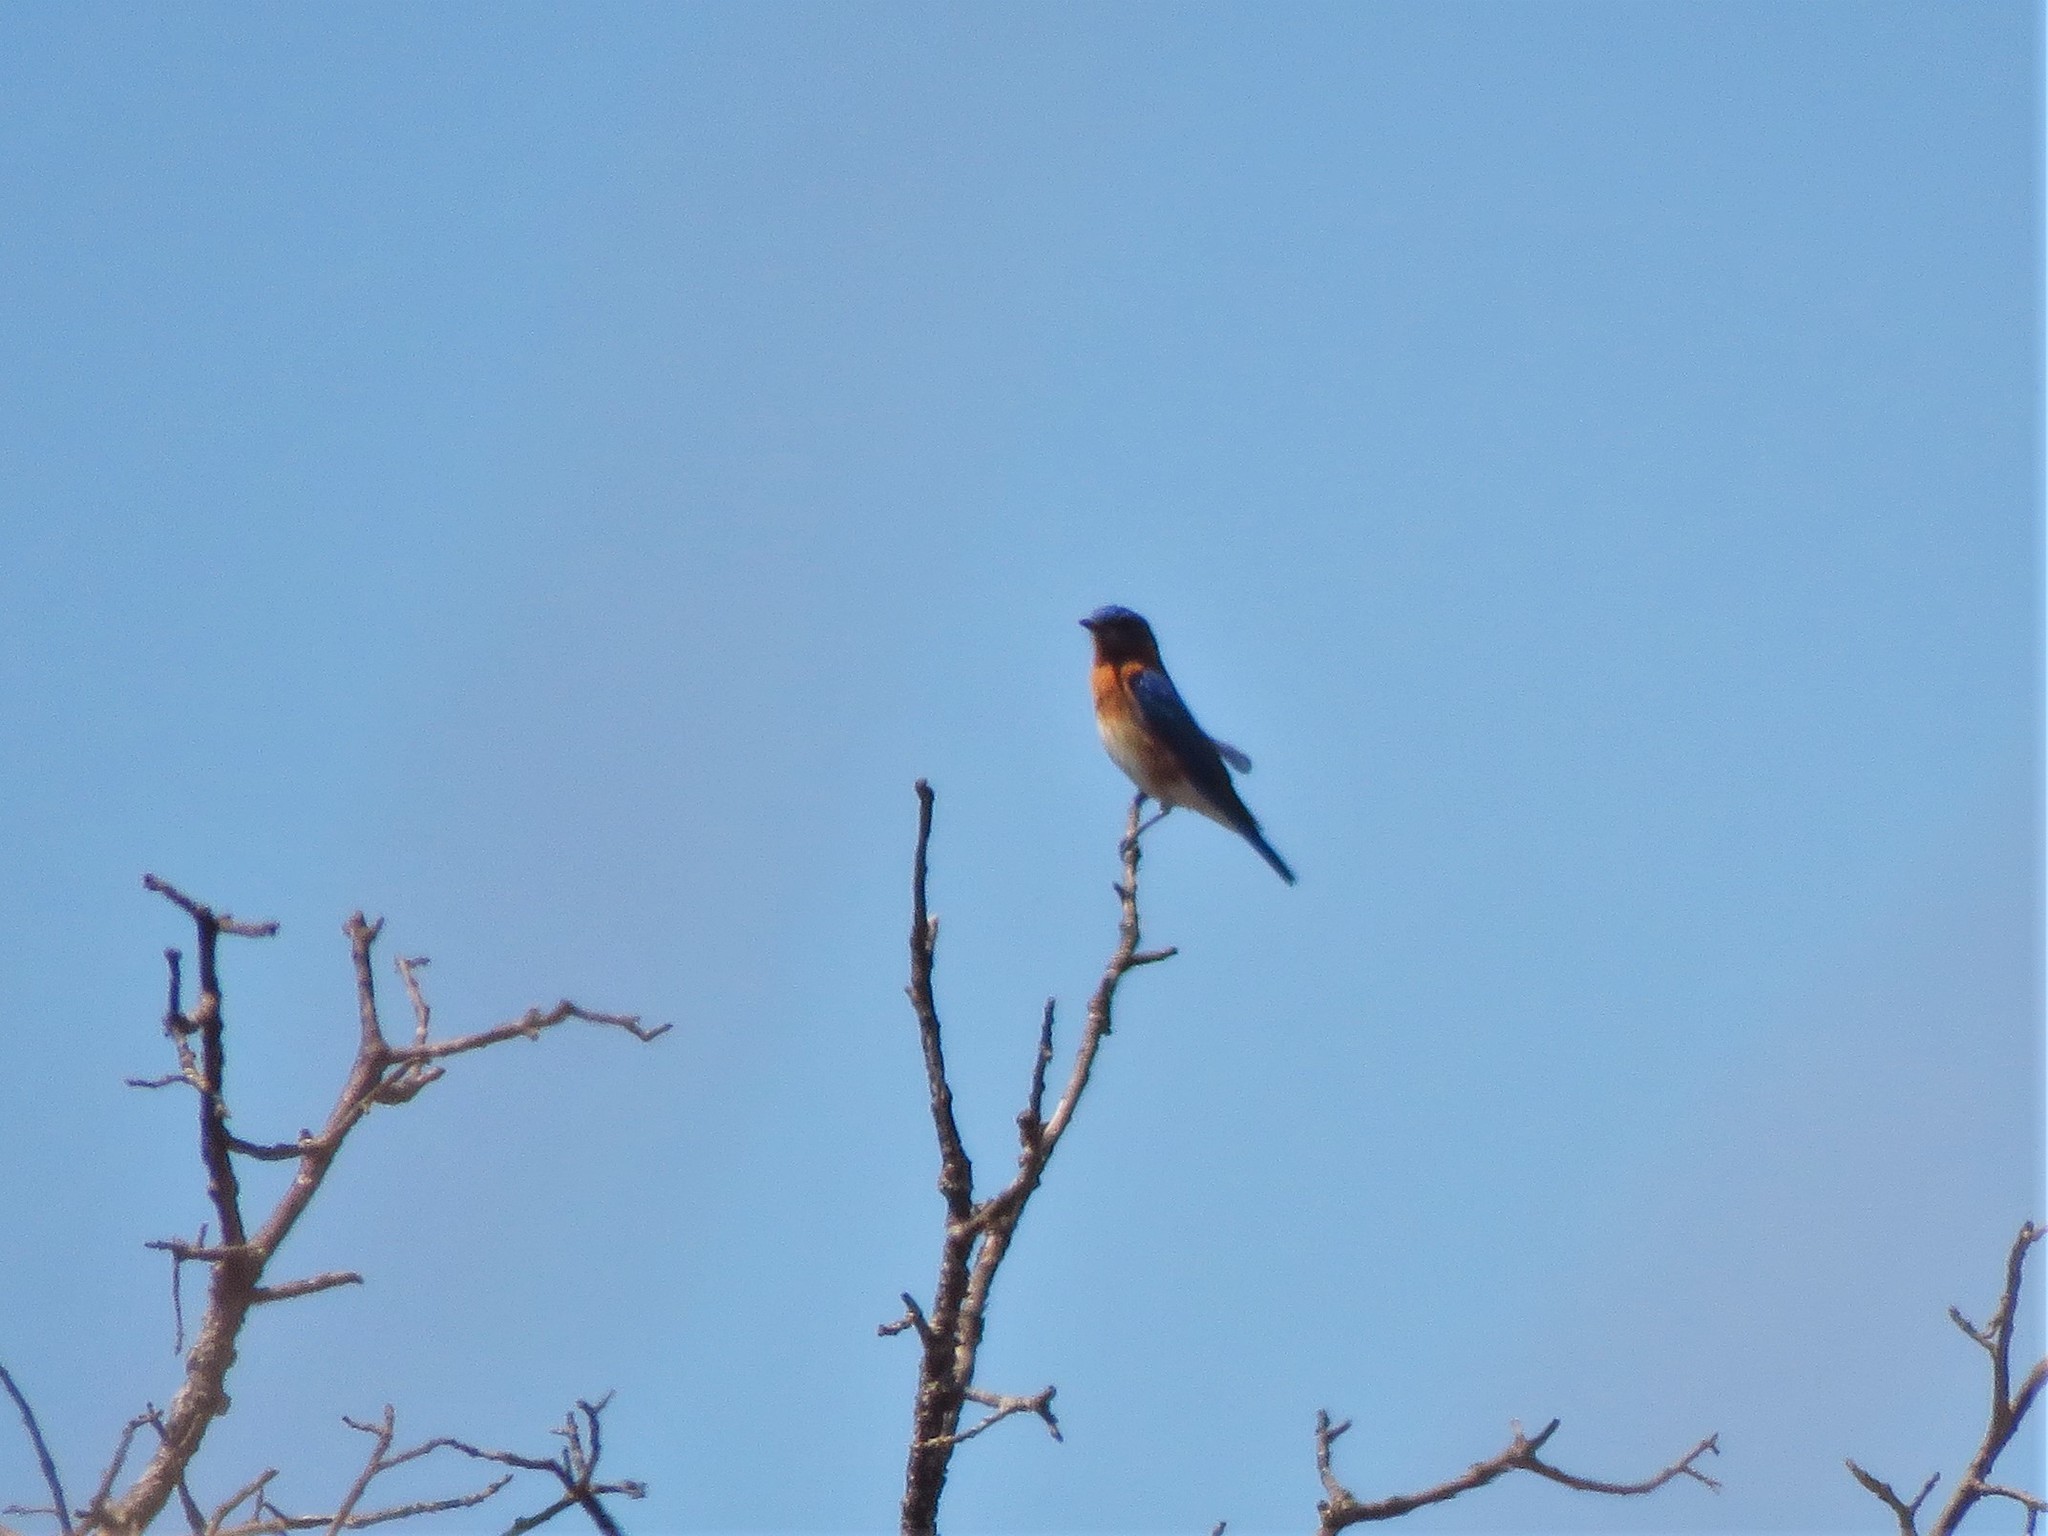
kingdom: Animalia
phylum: Chordata
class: Aves
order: Passeriformes
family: Turdidae
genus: Sialia
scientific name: Sialia sialis
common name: Eastern bluebird
